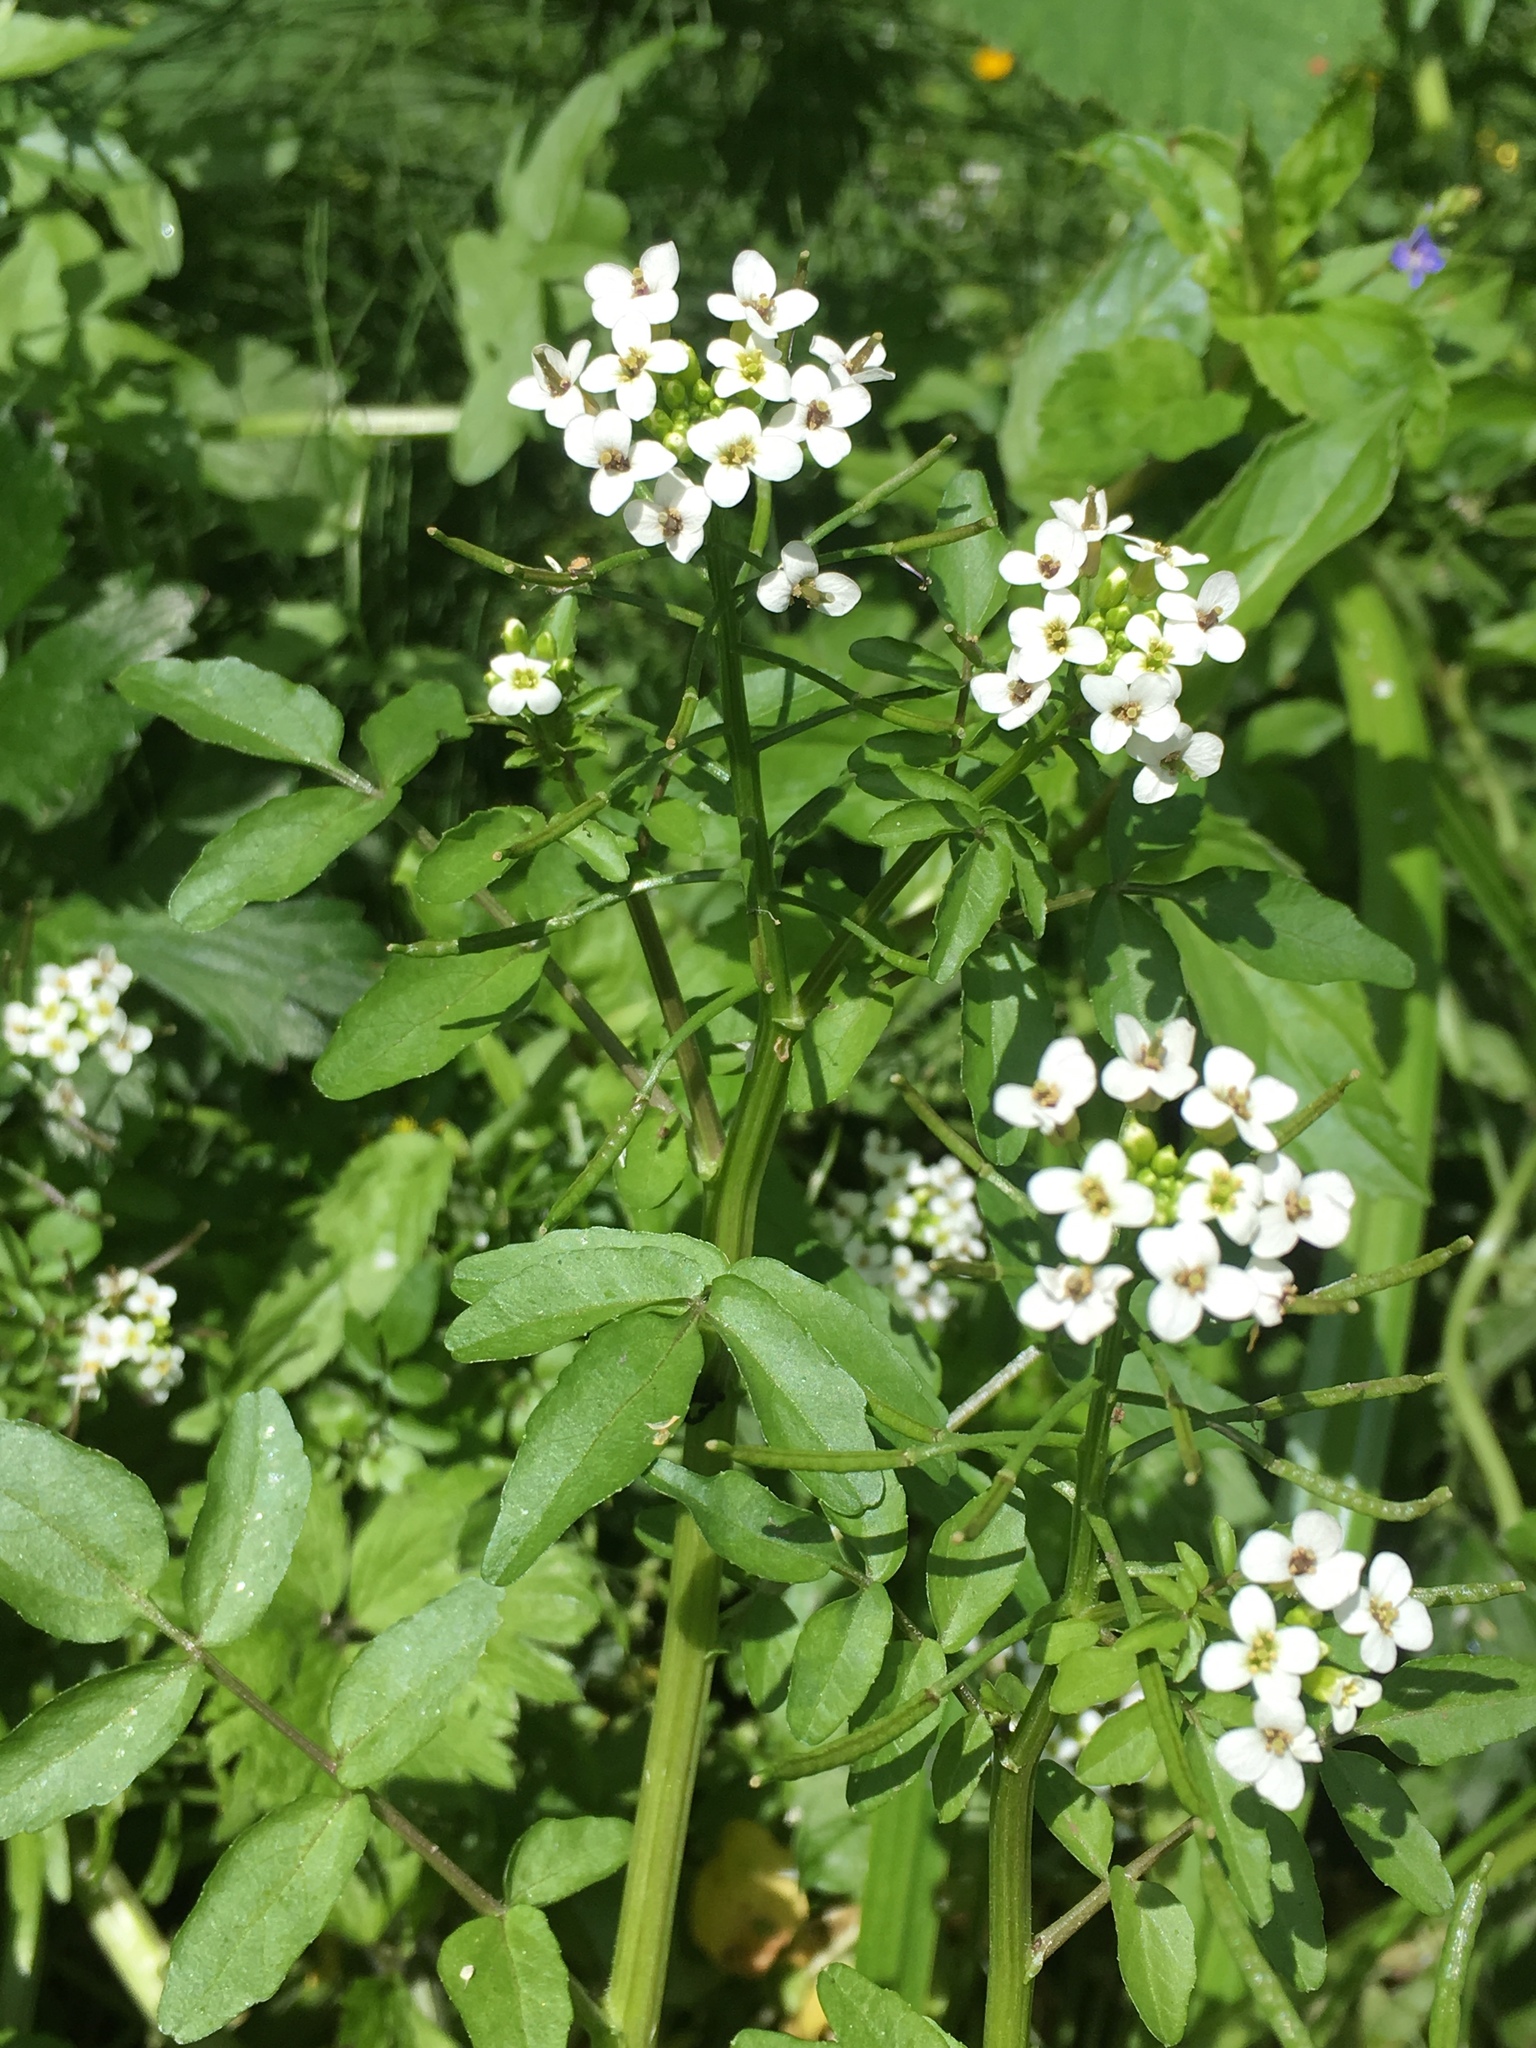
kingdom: Plantae
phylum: Tracheophyta
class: Magnoliopsida
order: Brassicales
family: Brassicaceae
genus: Nasturtium
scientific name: Nasturtium officinale
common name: Watercress
